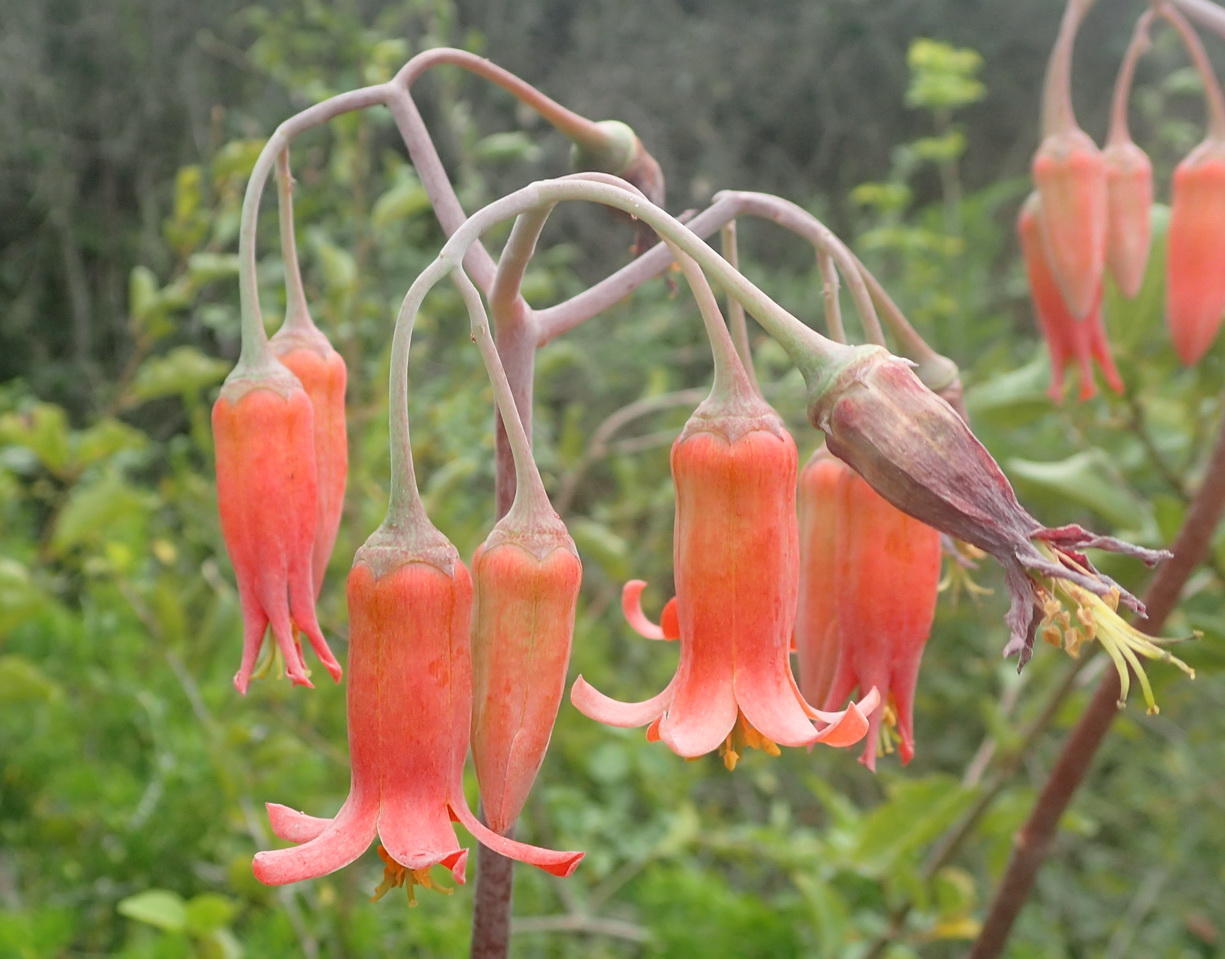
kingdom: Plantae
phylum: Tracheophyta
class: Magnoliopsida
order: Saxifragales
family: Crassulaceae
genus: Cotyledon
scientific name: Cotyledon orbiculata
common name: Pig's ear
